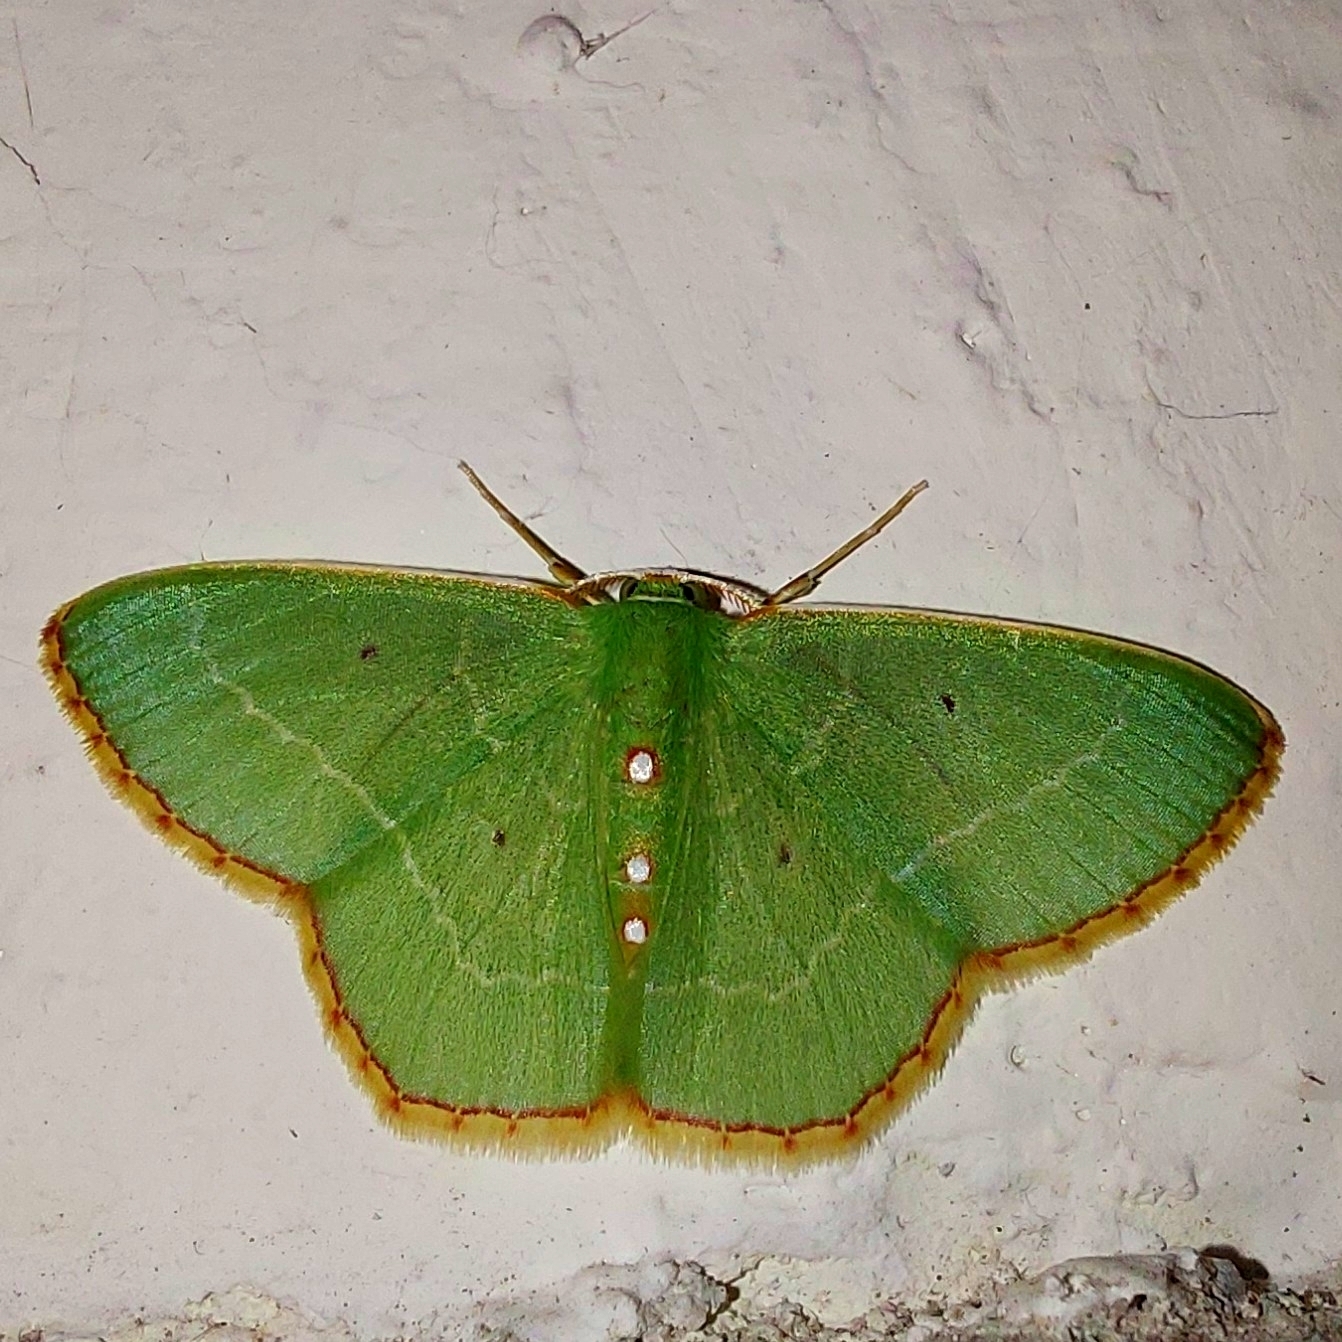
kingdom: Animalia
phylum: Arthropoda
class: Insecta
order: Lepidoptera
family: Geometridae
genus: Nemoria
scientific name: Nemoria lixaria
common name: Red-bordered emerald
